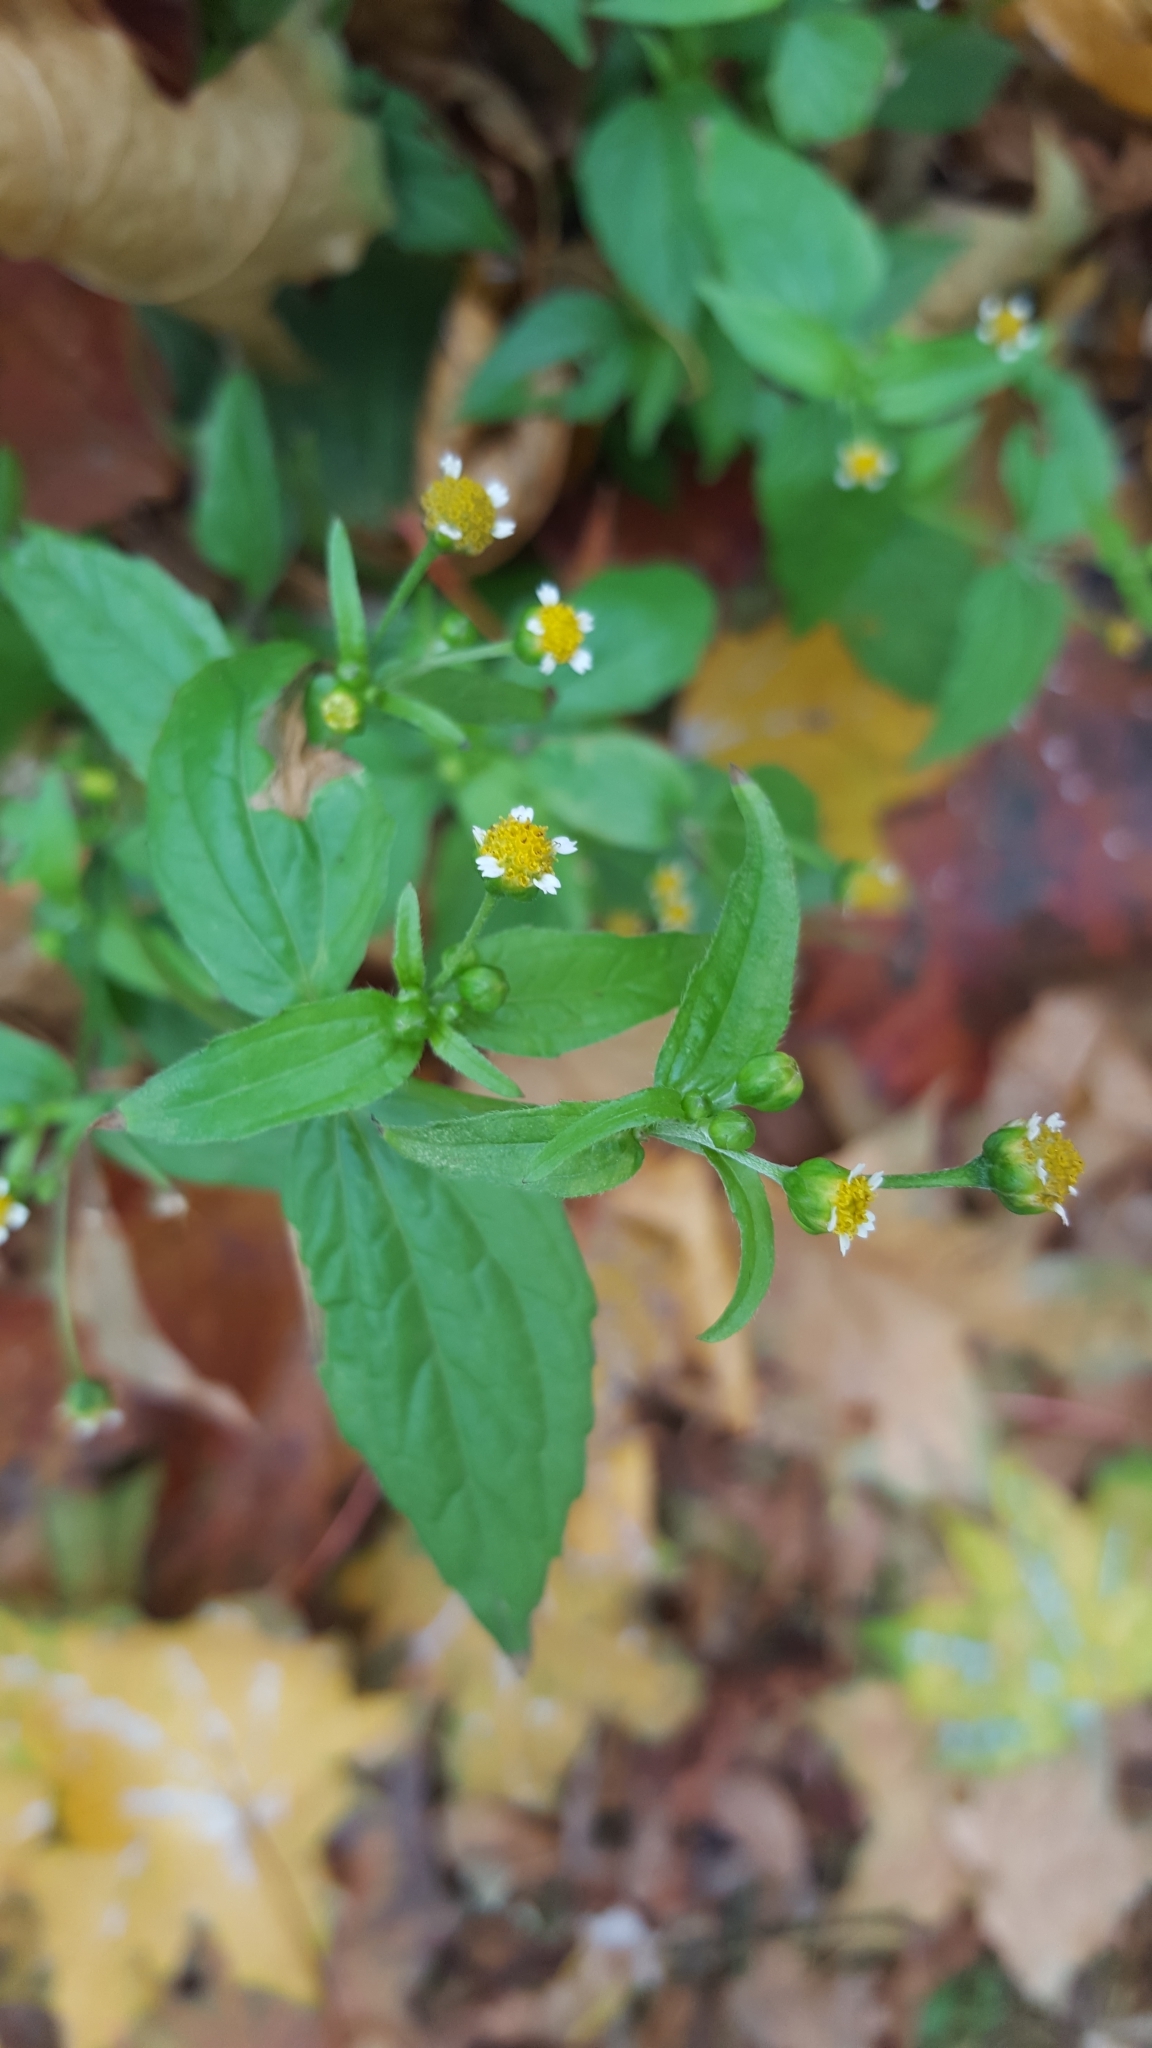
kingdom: Plantae
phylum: Tracheophyta
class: Magnoliopsida
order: Asterales
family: Asteraceae
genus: Galinsoga
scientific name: Galinsoga parviflora
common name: Gallant soldier
